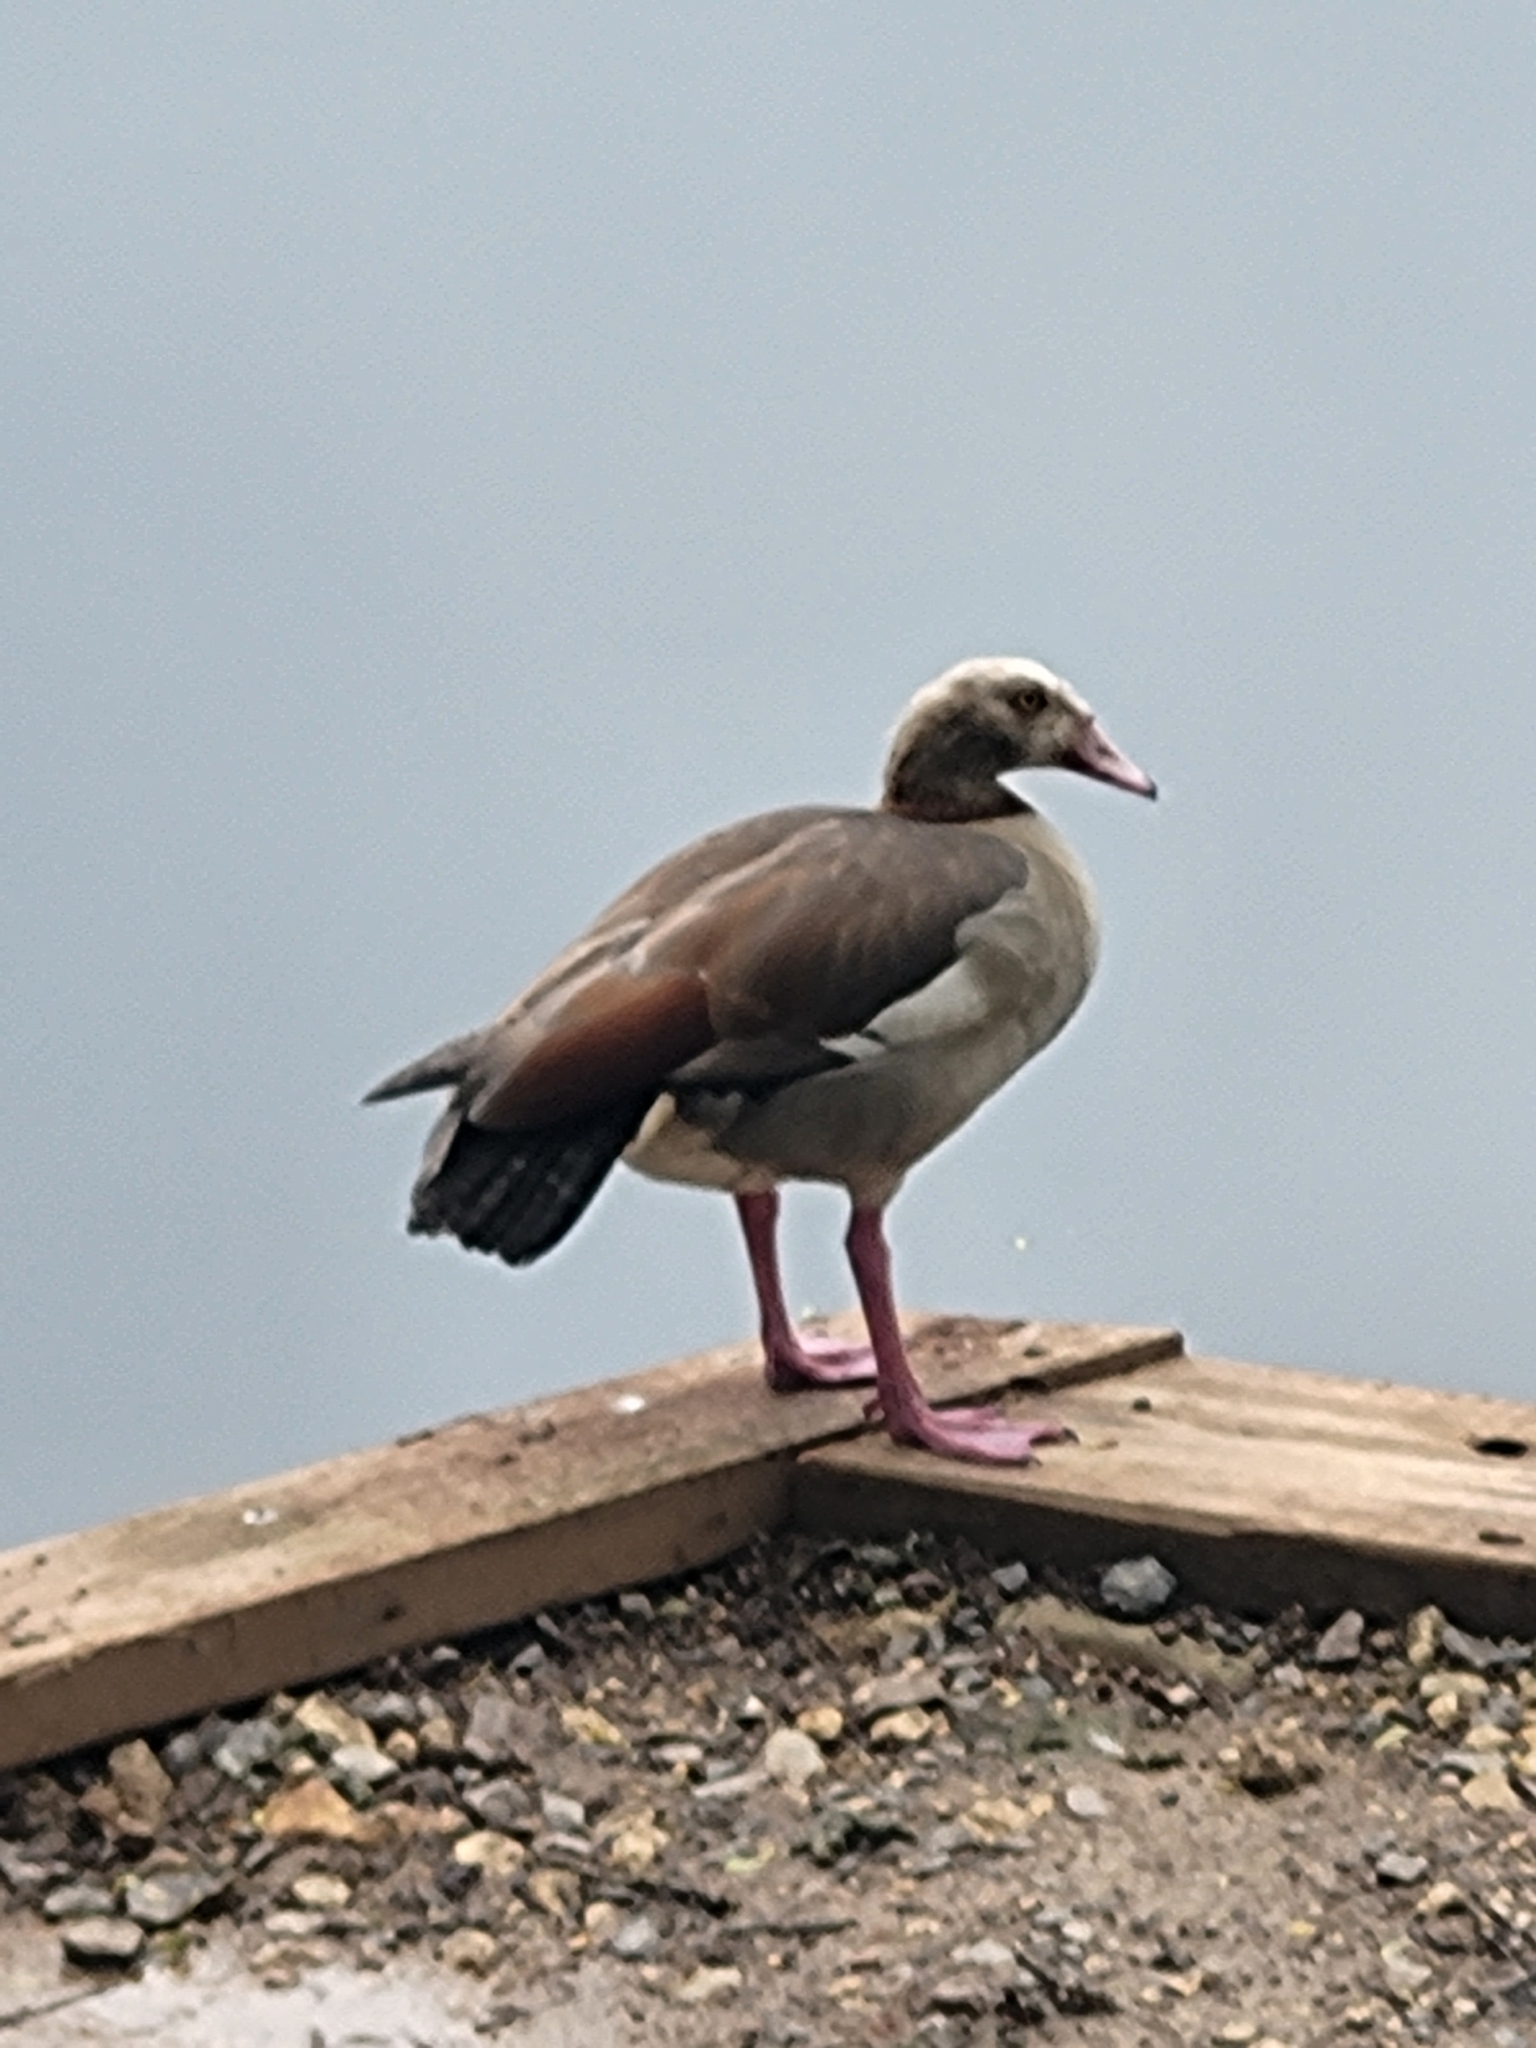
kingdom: Animalia
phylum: Chordata
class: Aves
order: Anseriformes
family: Anatidae
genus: Alopochen
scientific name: Alopochen aegyptiaca
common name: Egyptian goose
